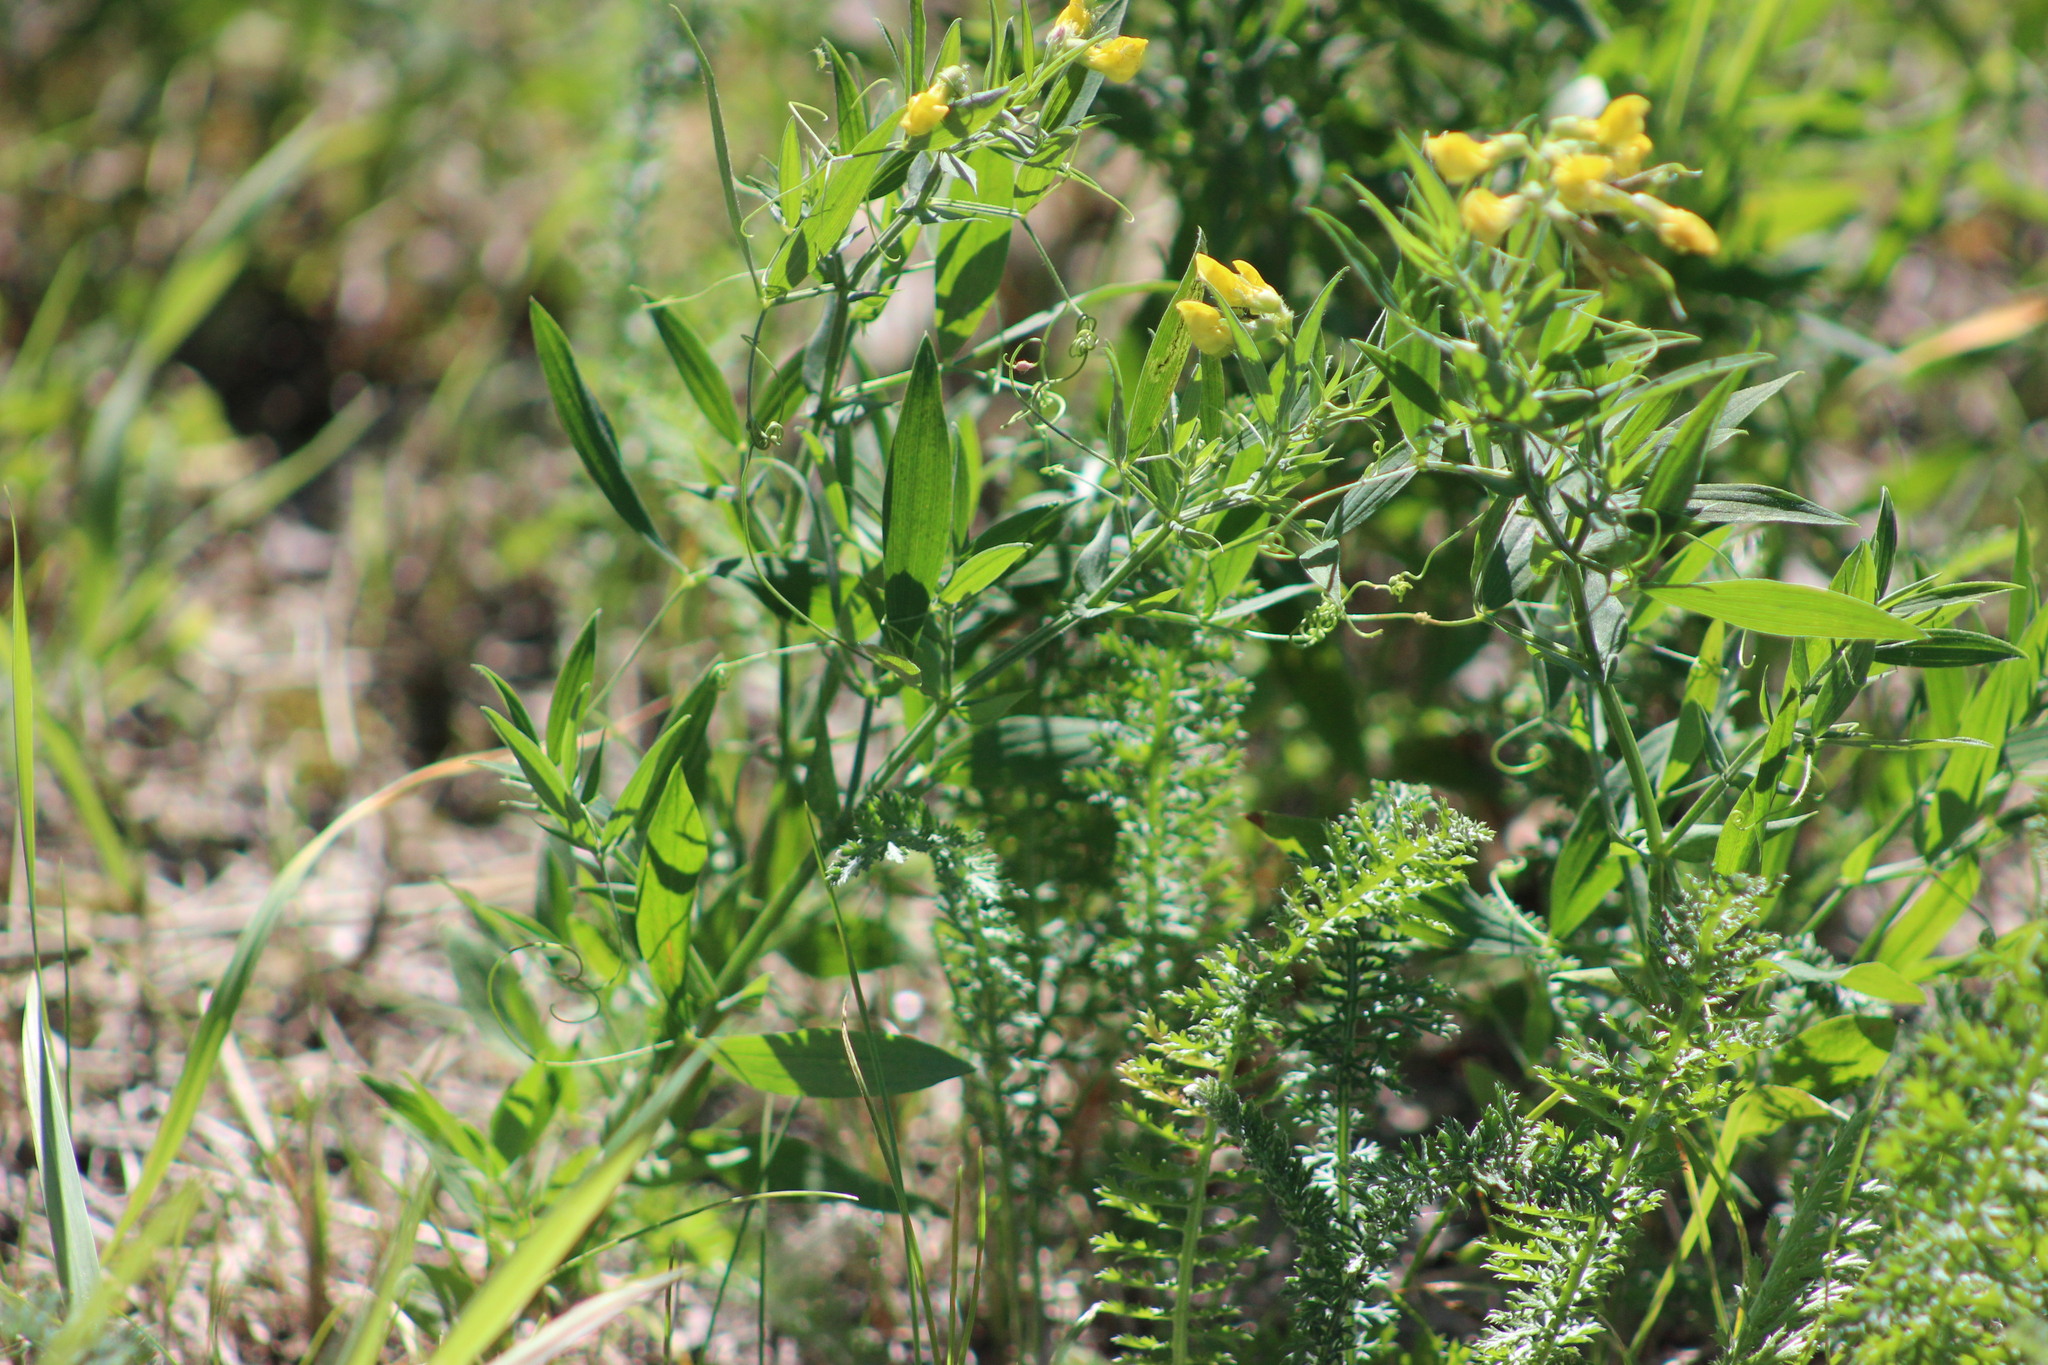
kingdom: Plantae
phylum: Tracheophyta
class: Magnoliopsida
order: Fabales
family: Fabaceae
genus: Lathyrus
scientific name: Lathyrus pratensis
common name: Meadow vetchling
